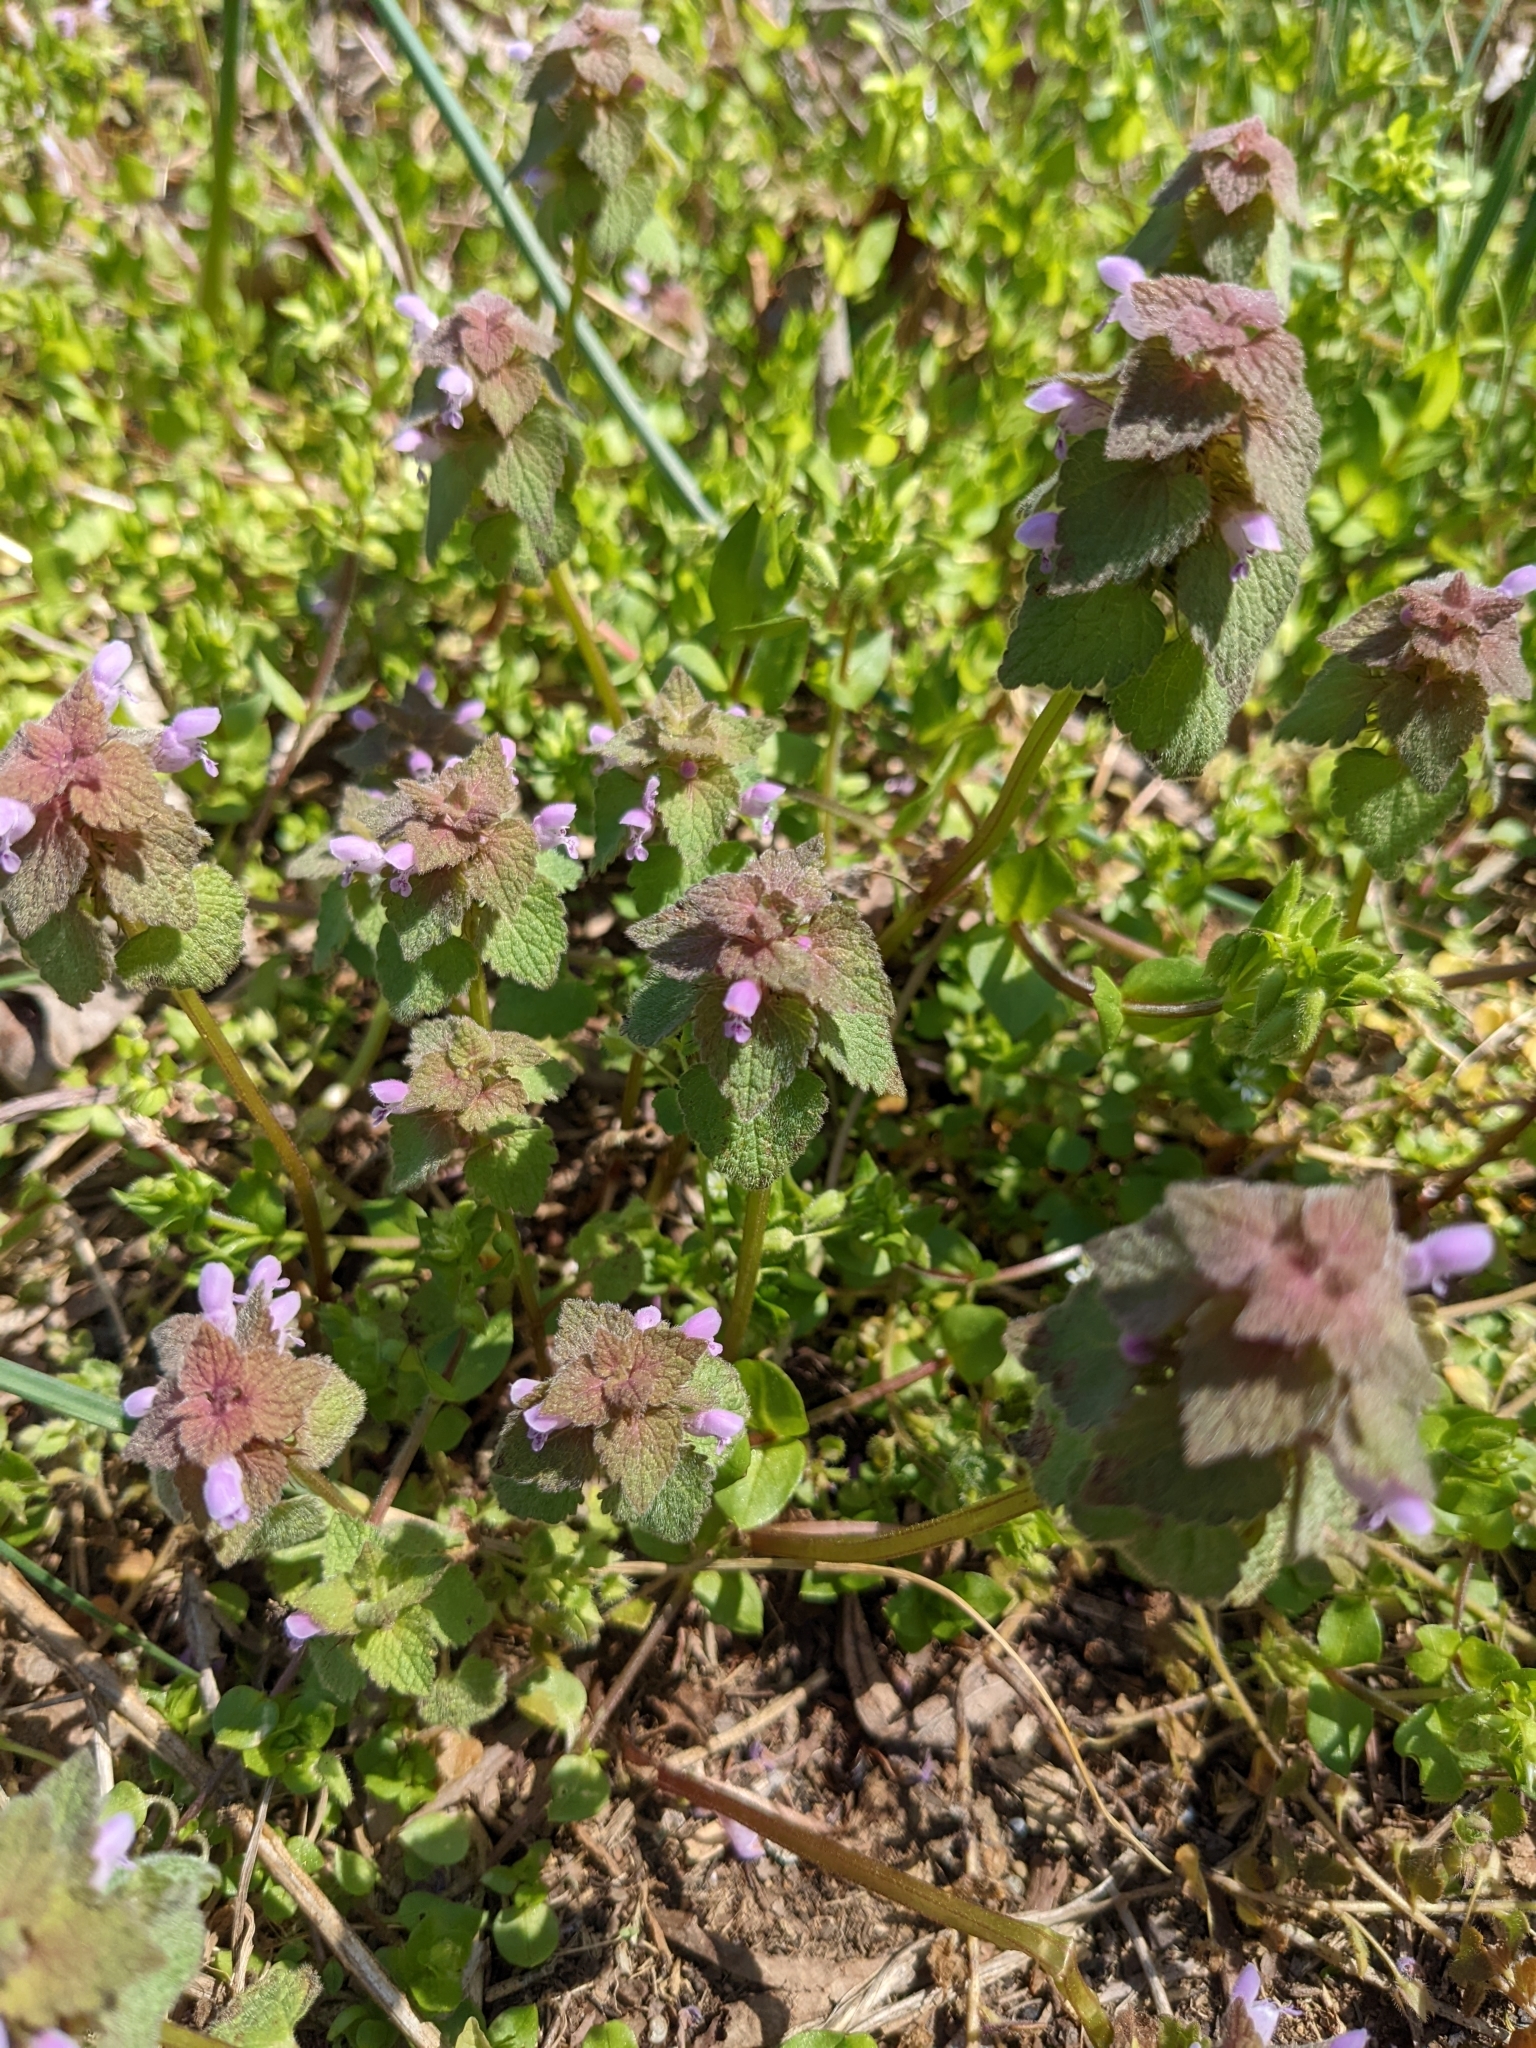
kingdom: Plantae
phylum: Tracheophyta
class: Magnoliopsida
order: Lamiales
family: Lamiaceae
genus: Lamium
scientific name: Lamium purpureum
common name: Red dead-nettle
